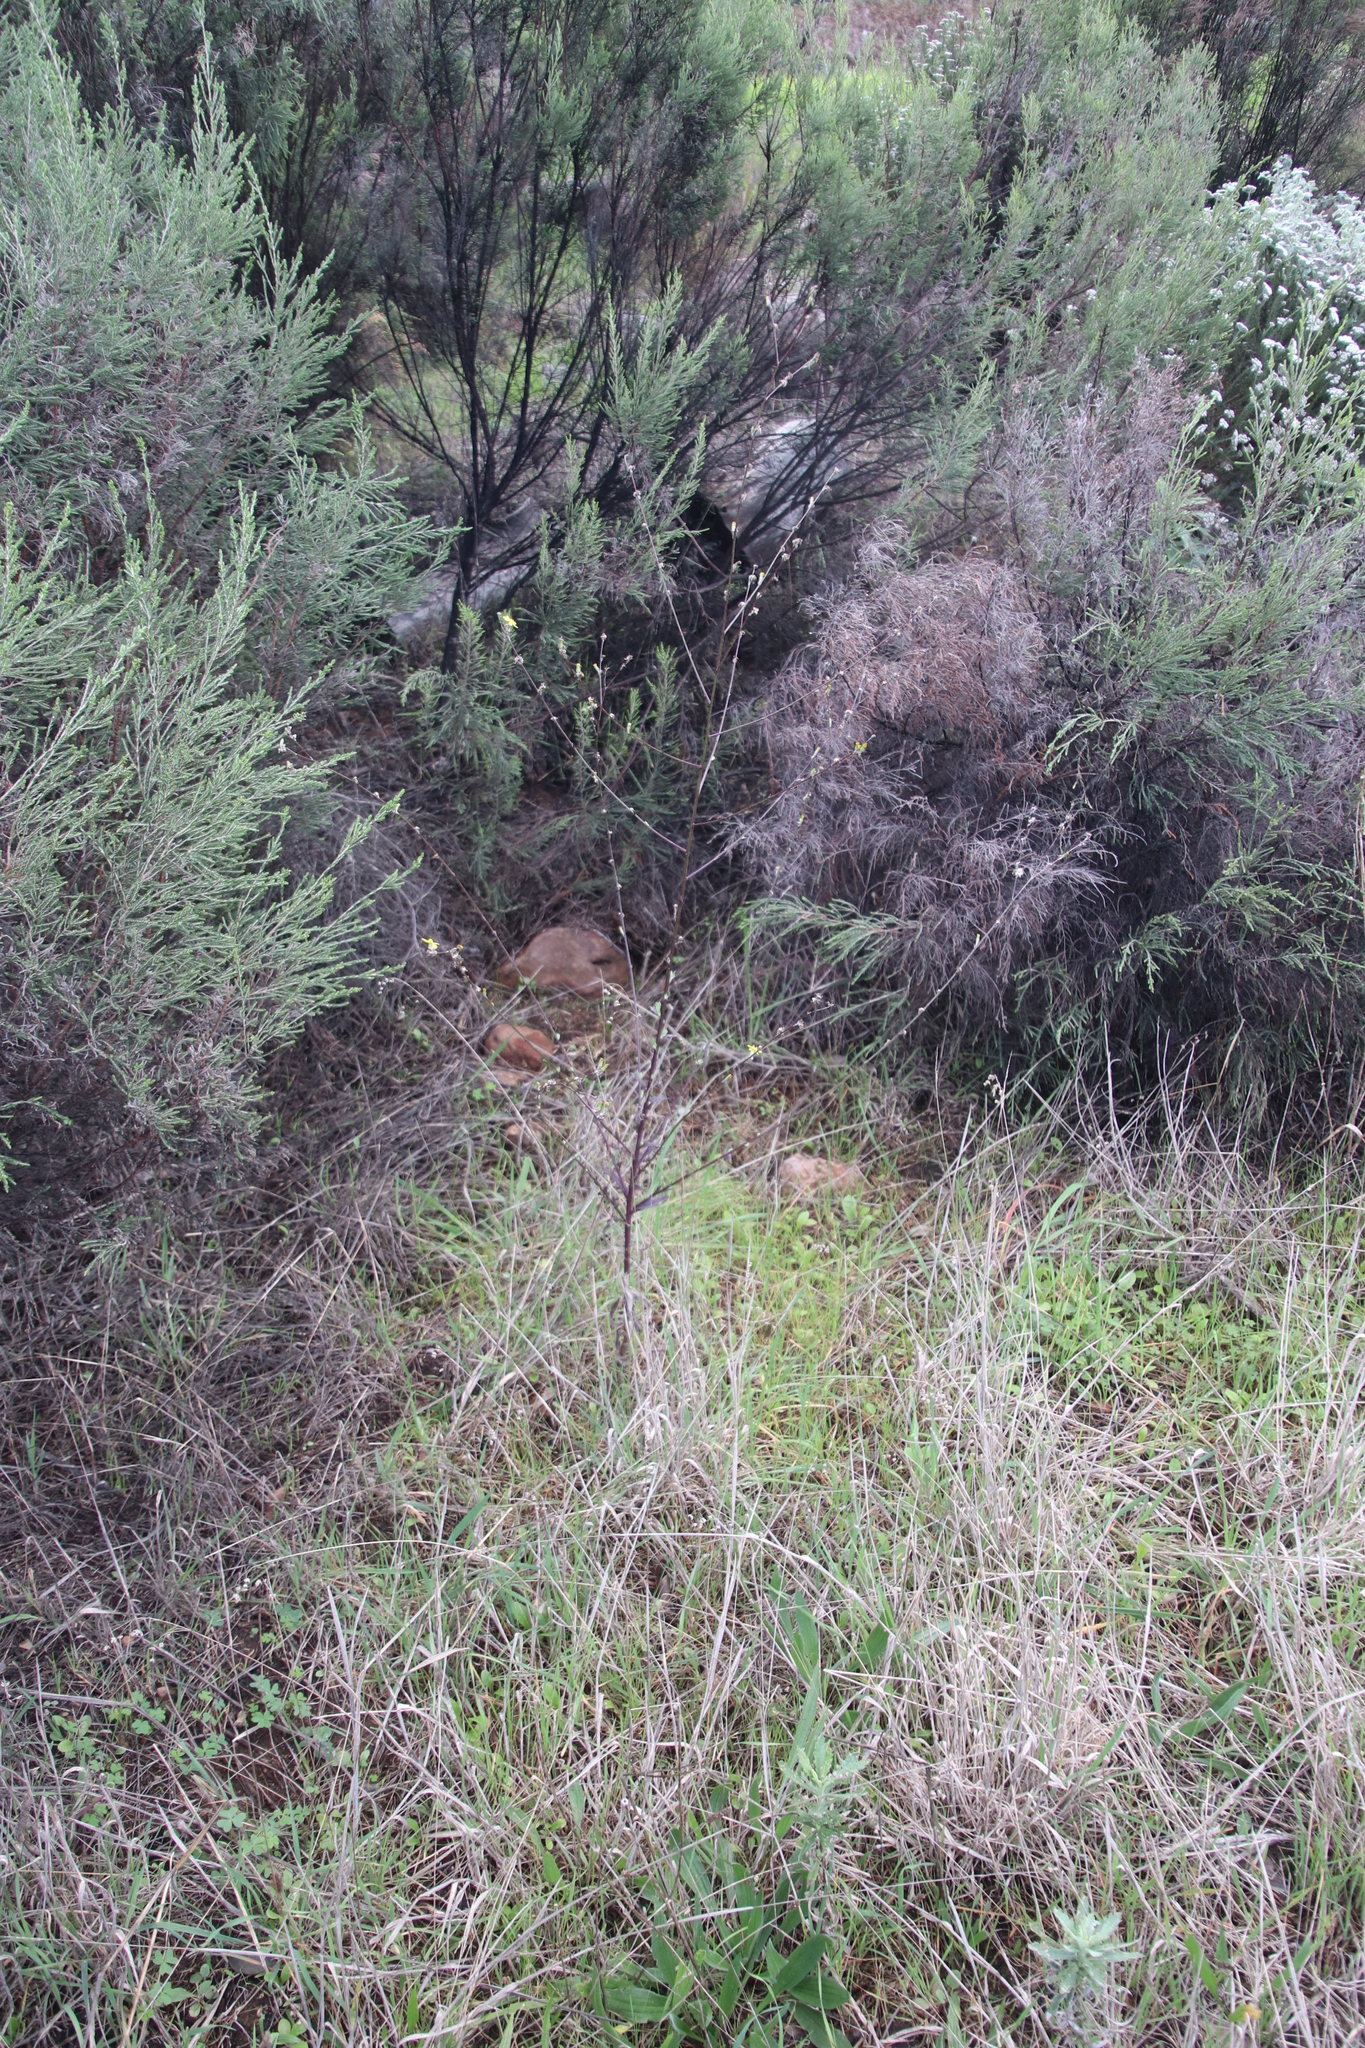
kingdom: Plantae
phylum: Tracheophyta
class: Magnoliopsida
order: Asterales
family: Asteraceae
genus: Senecio
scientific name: Senecio pubigerus
